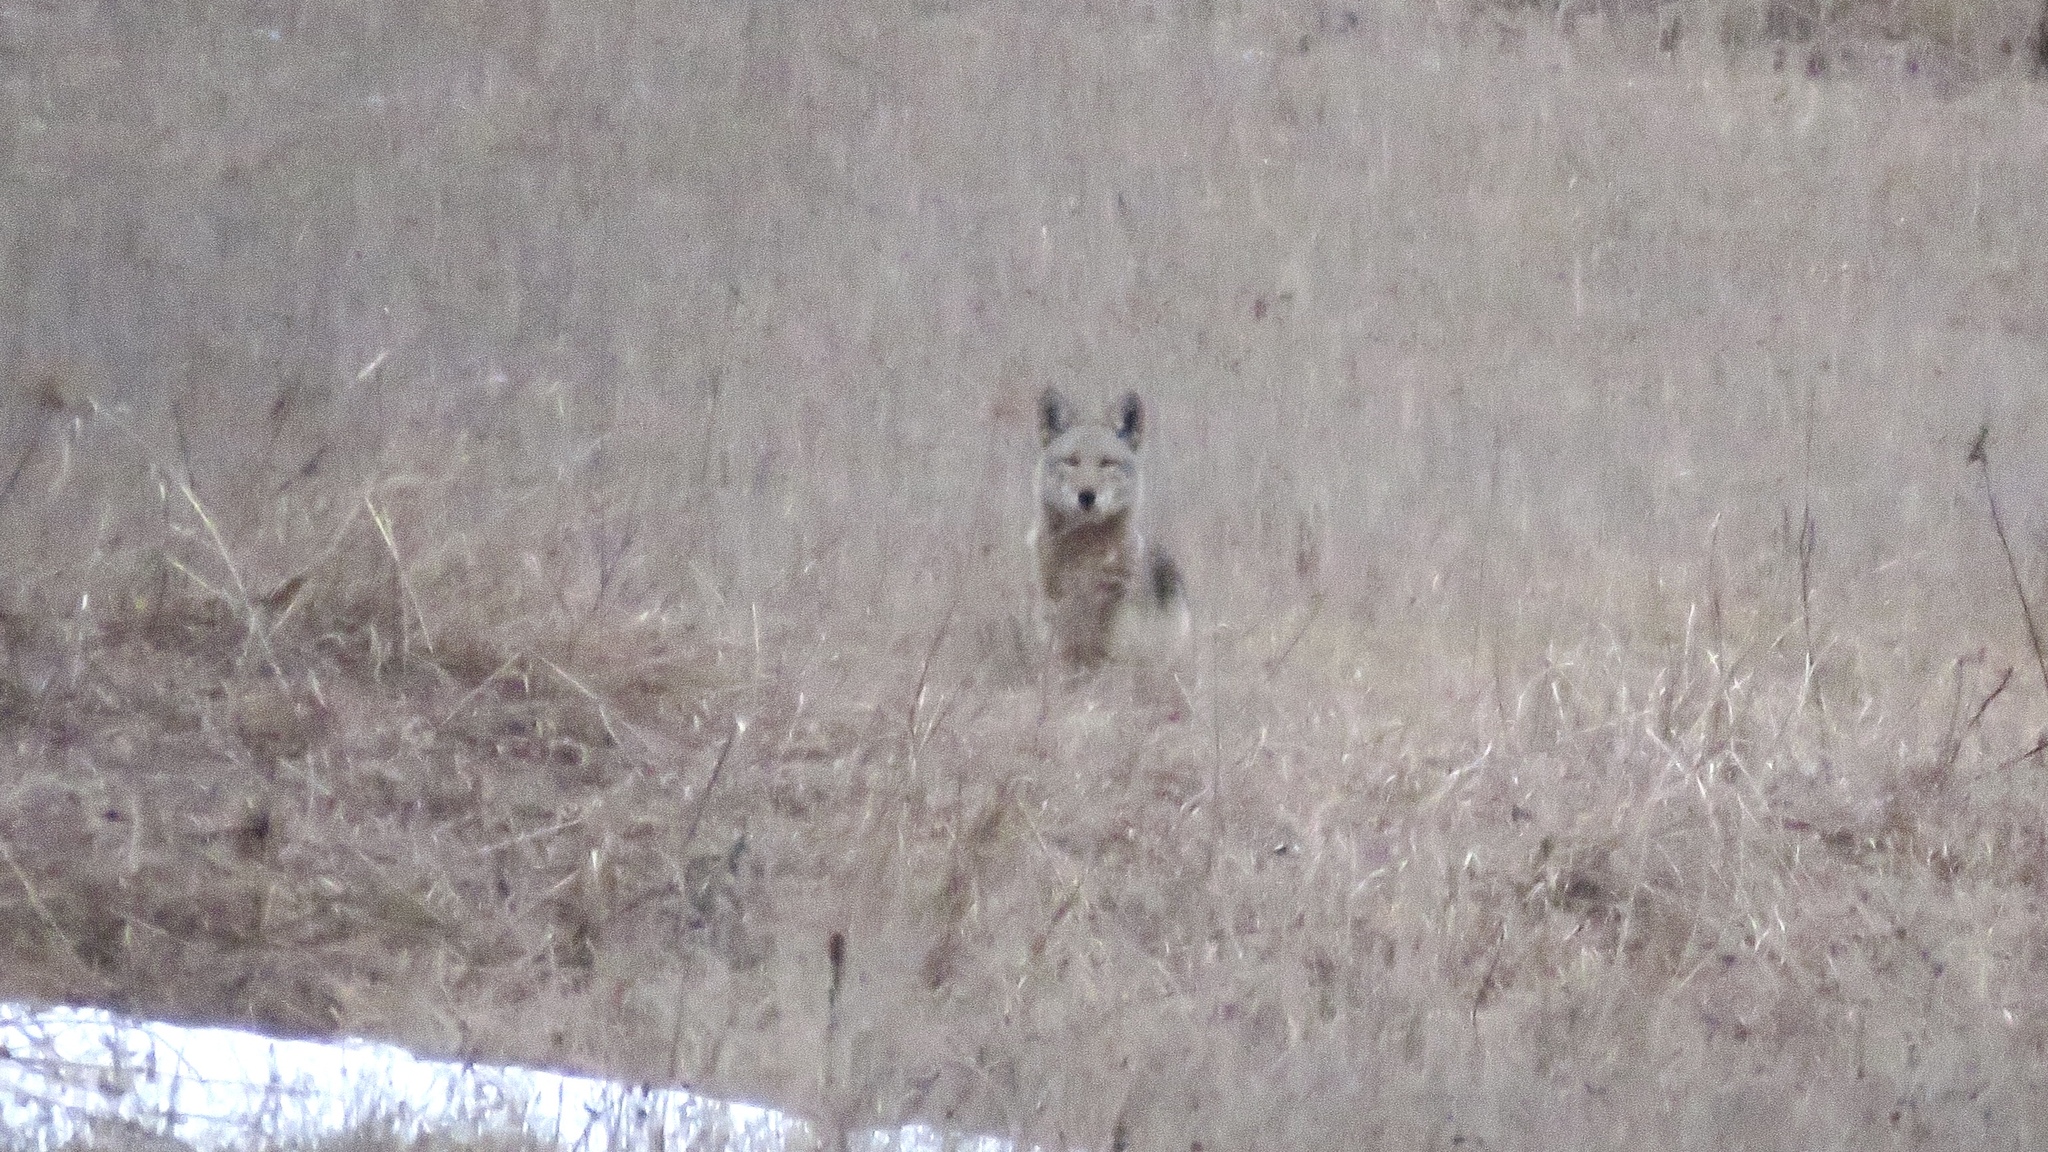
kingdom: Animalia
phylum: Chordata
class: Mammalia
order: Carnivora
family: Canidae
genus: Canis
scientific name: Canis latrans
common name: Coyote
